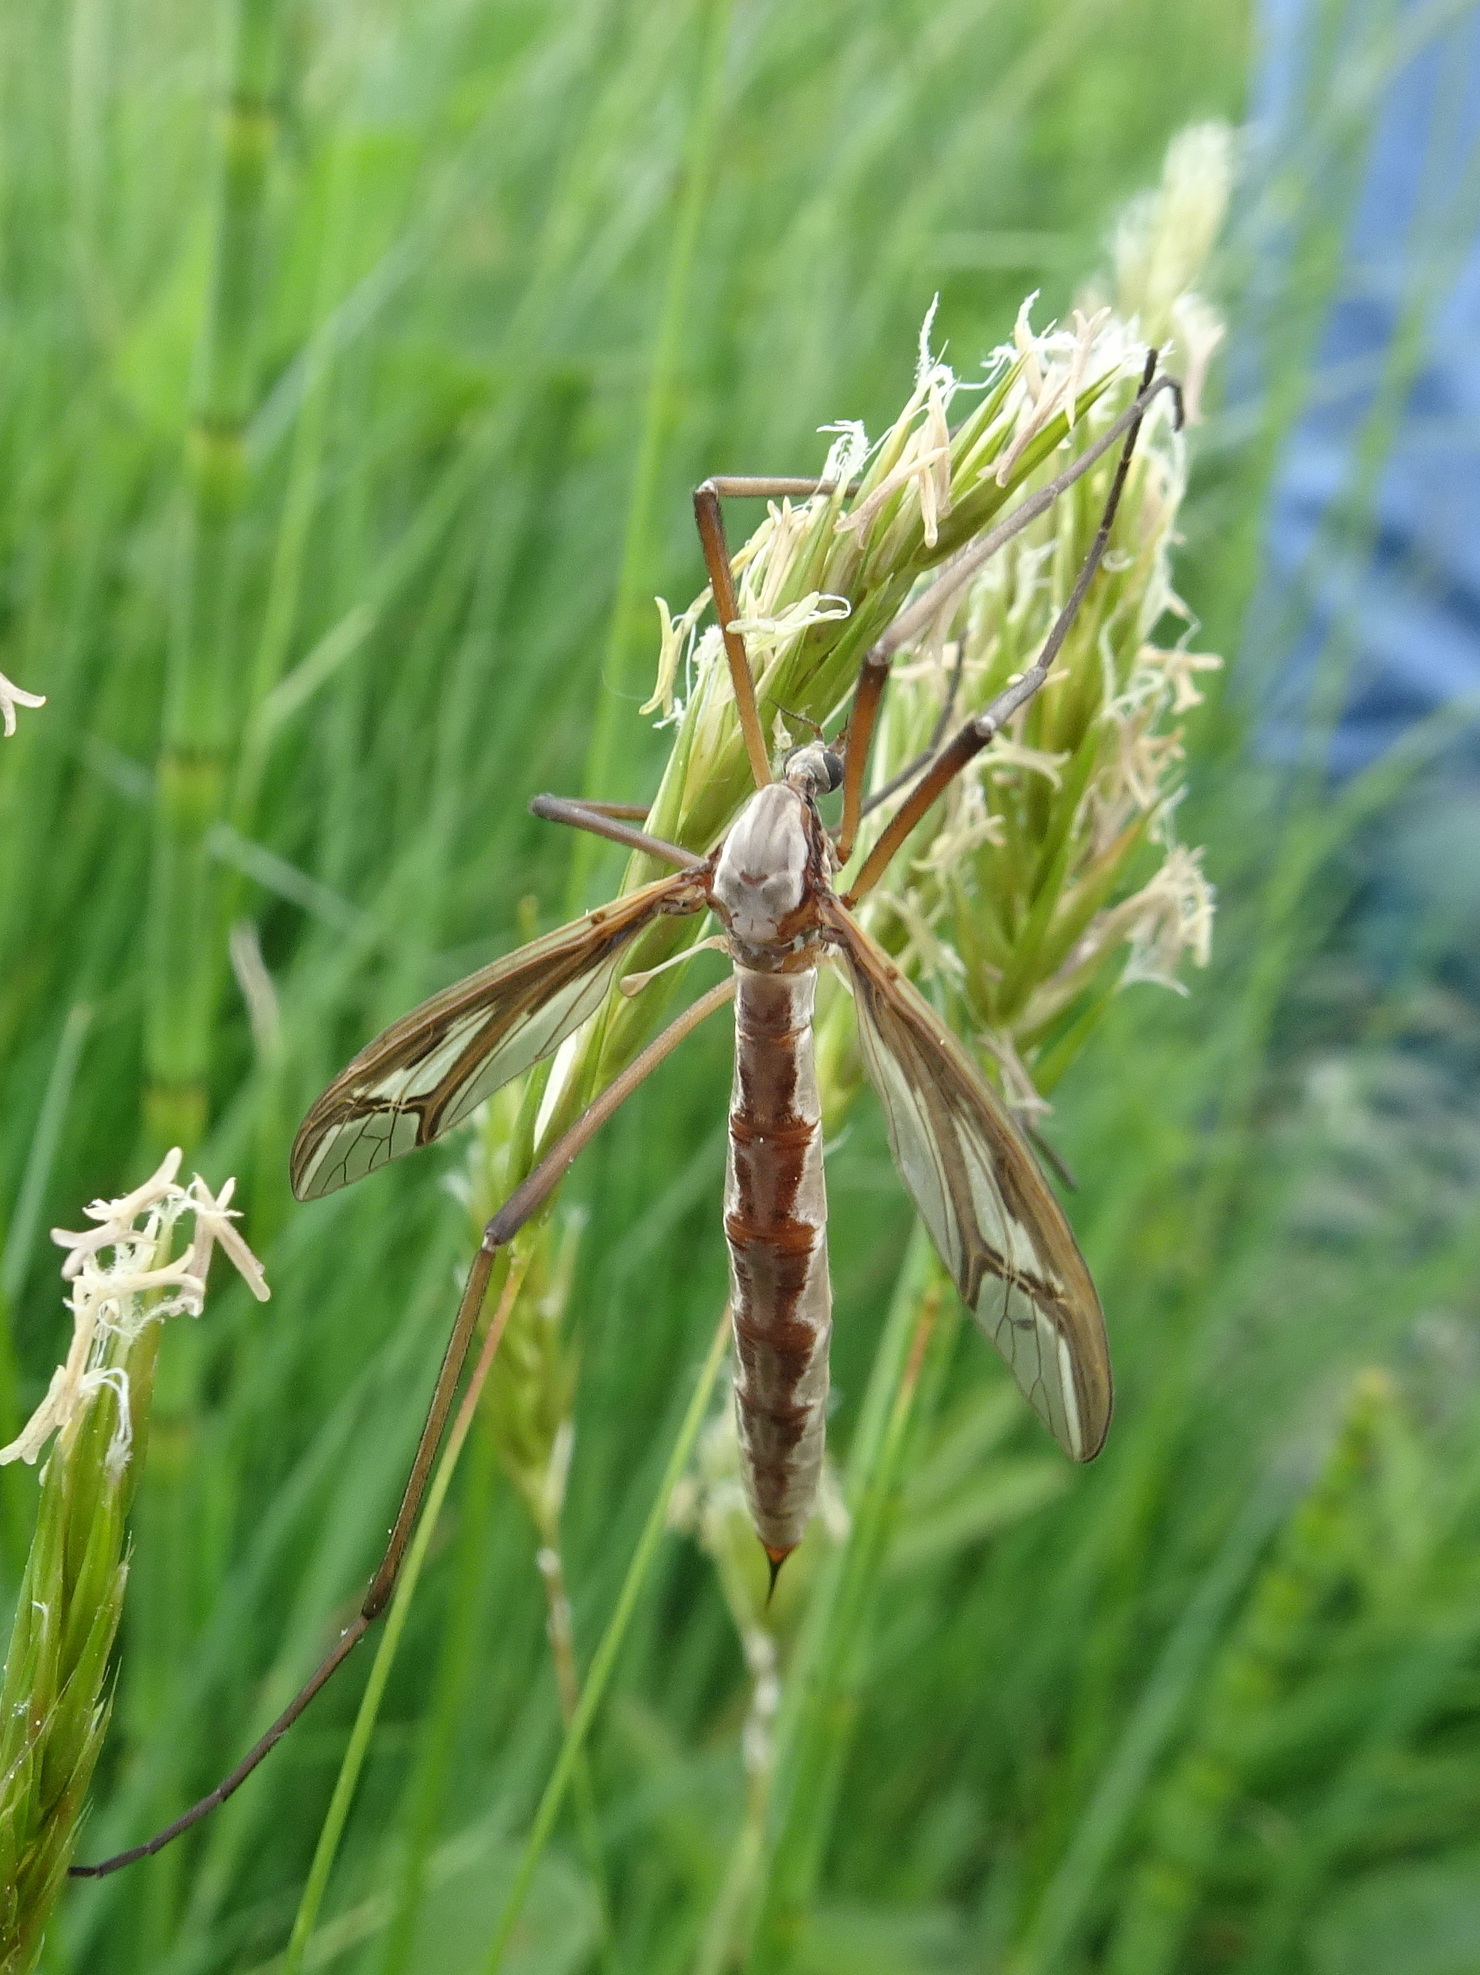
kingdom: Animalia
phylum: Arthropoda
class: Insecta
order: Diptera
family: Pediciidae
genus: Pedicia
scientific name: Pedicia rivosa
